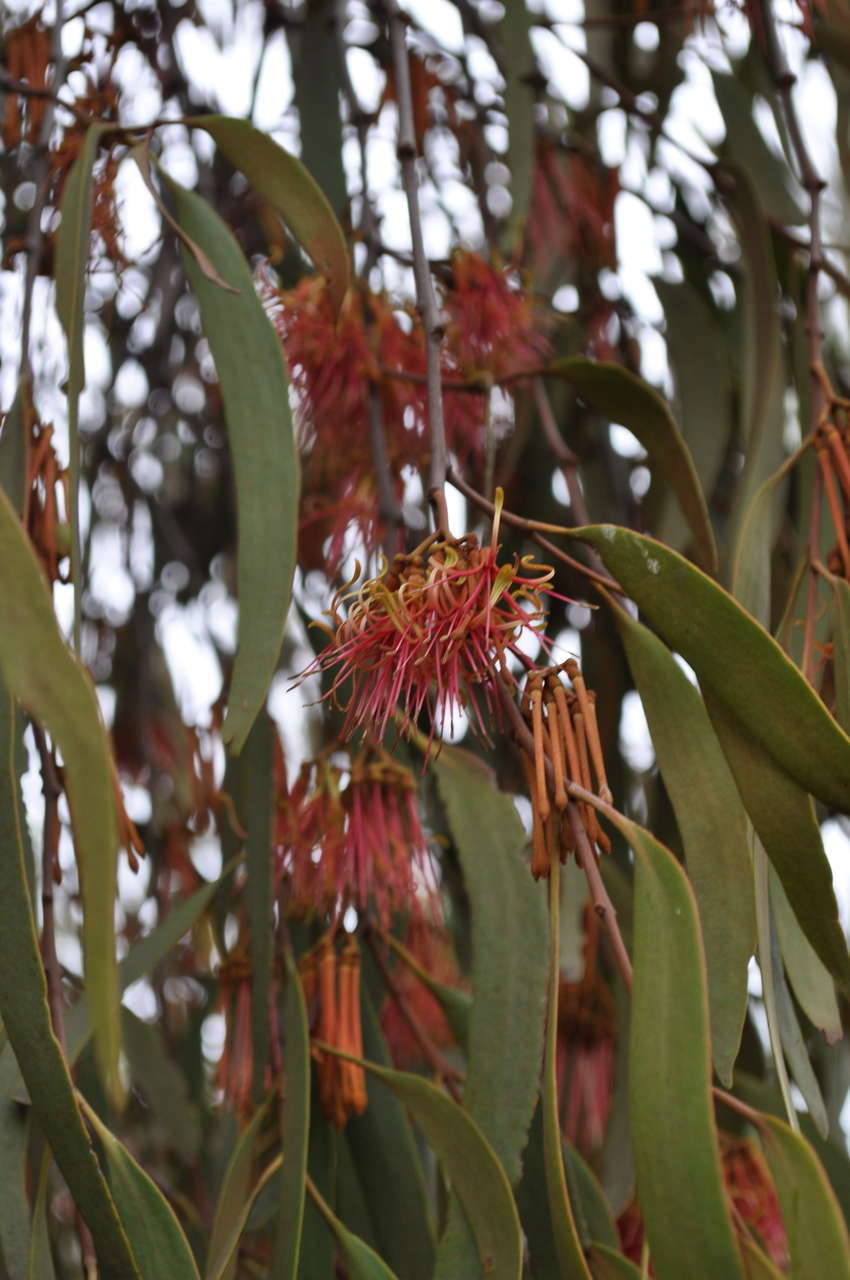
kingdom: Plantae
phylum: Tracheophyta
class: Magnoliopsida
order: Santalales
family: Loranthaceae
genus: Amyema
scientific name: Amyema pendula
